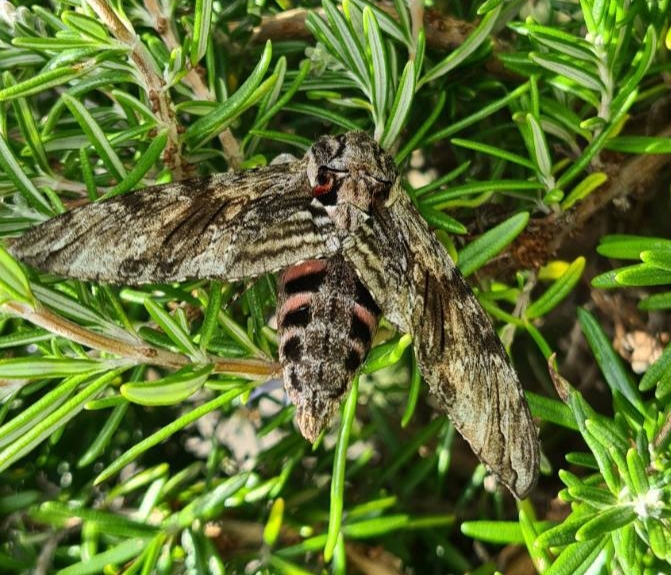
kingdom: Animalia
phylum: Arthropoda
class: Insecta
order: Lepidoptera
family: Sphingidae
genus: Agrius
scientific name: Agrius convolvuli
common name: Convolvulus hawkmoth
